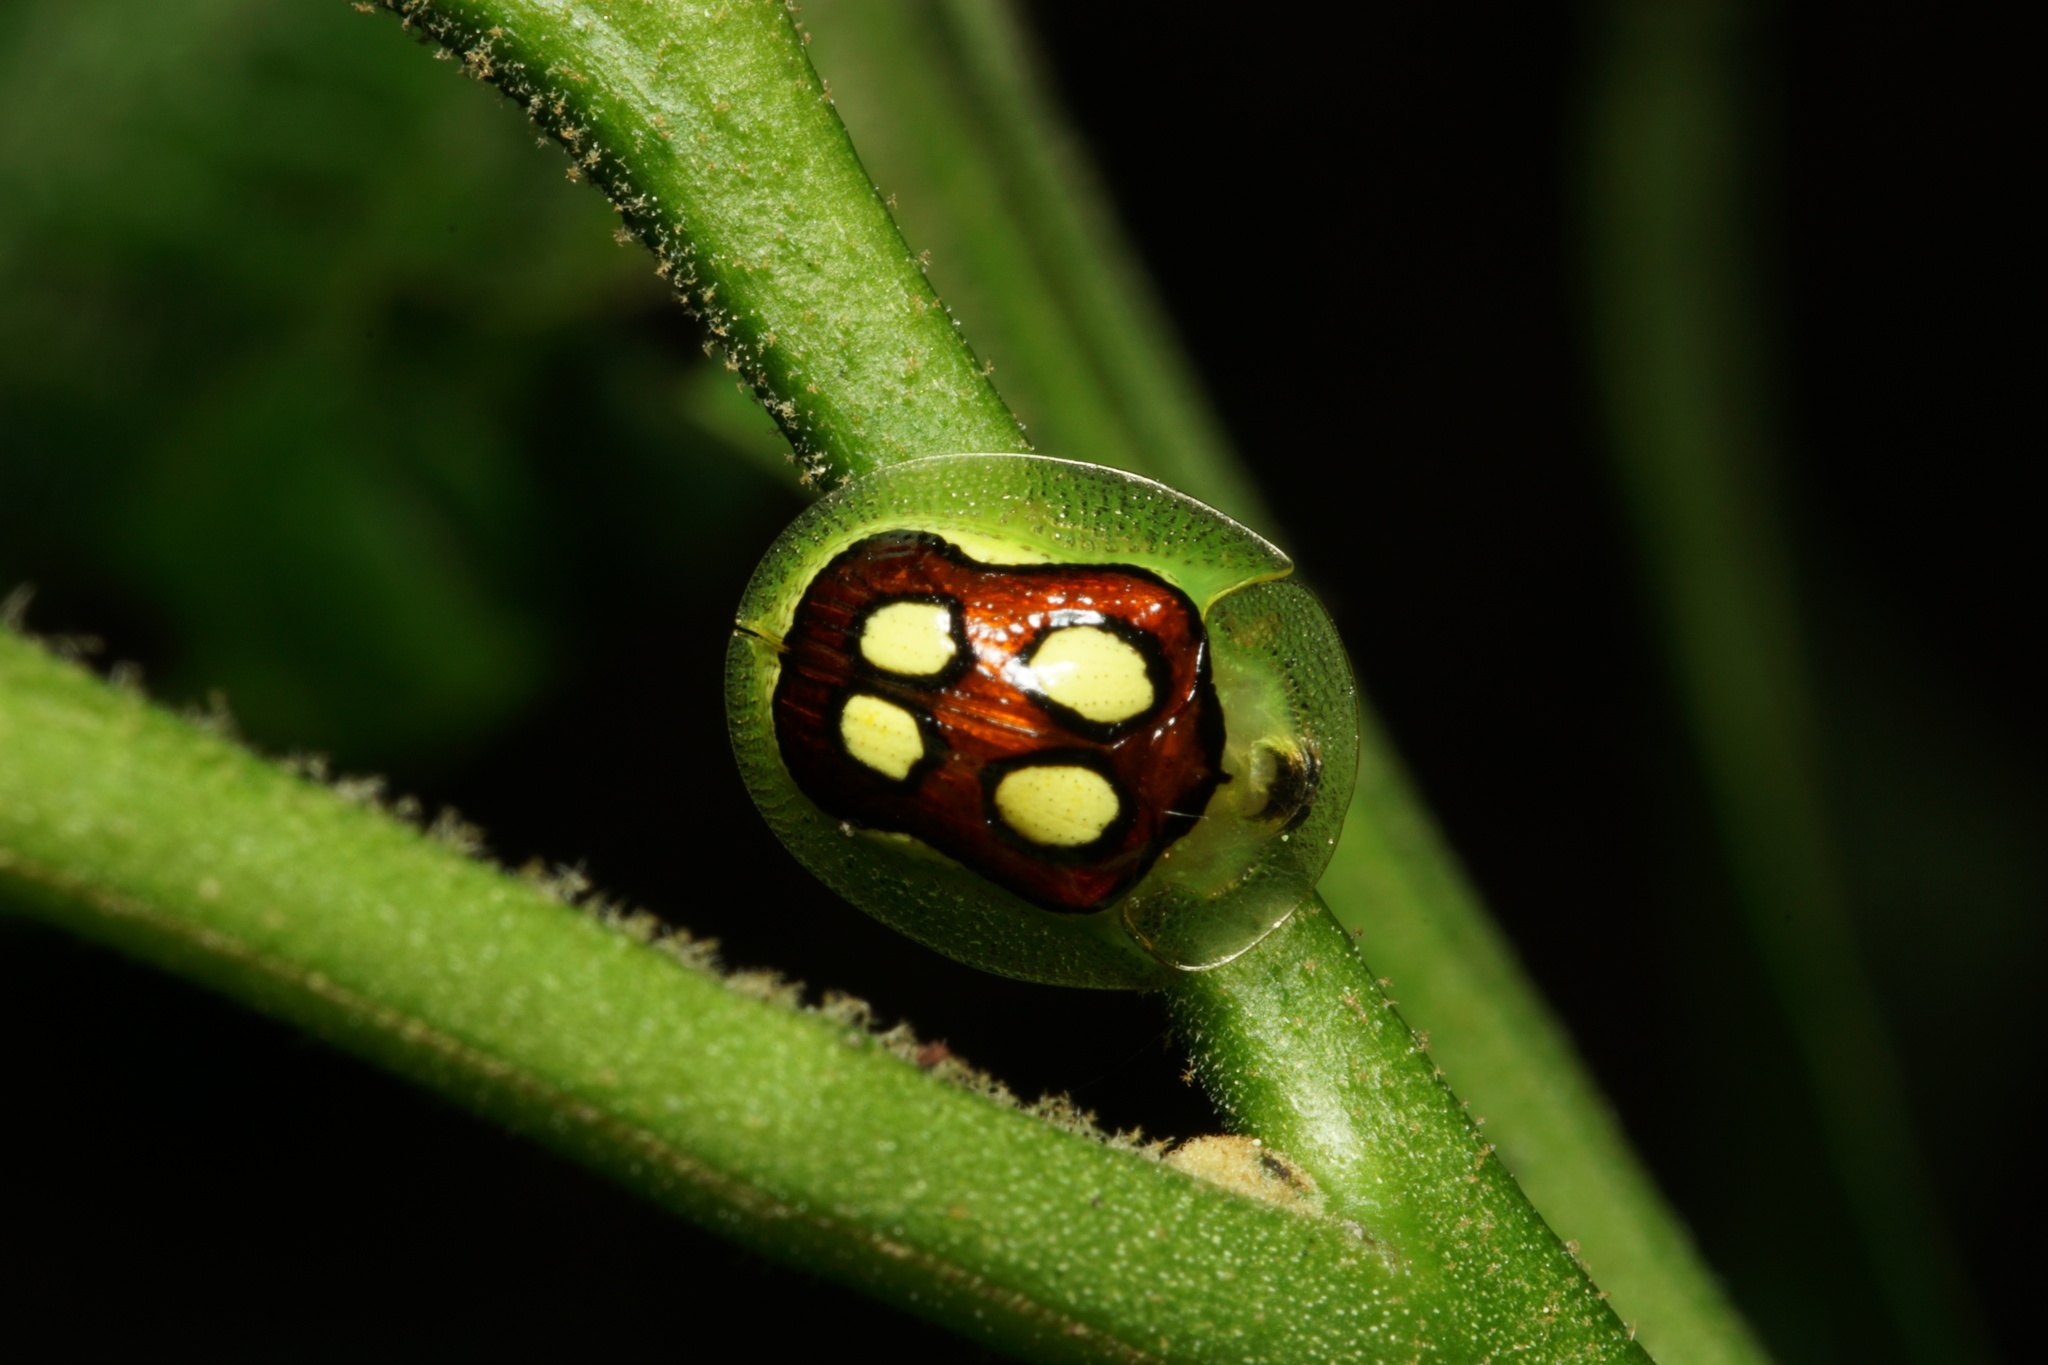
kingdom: Animalia
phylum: Arthropoda
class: Insecta
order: Coleoptera
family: Chrysomelidae
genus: Plagiometriona
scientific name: Plagiometriona ludicra
